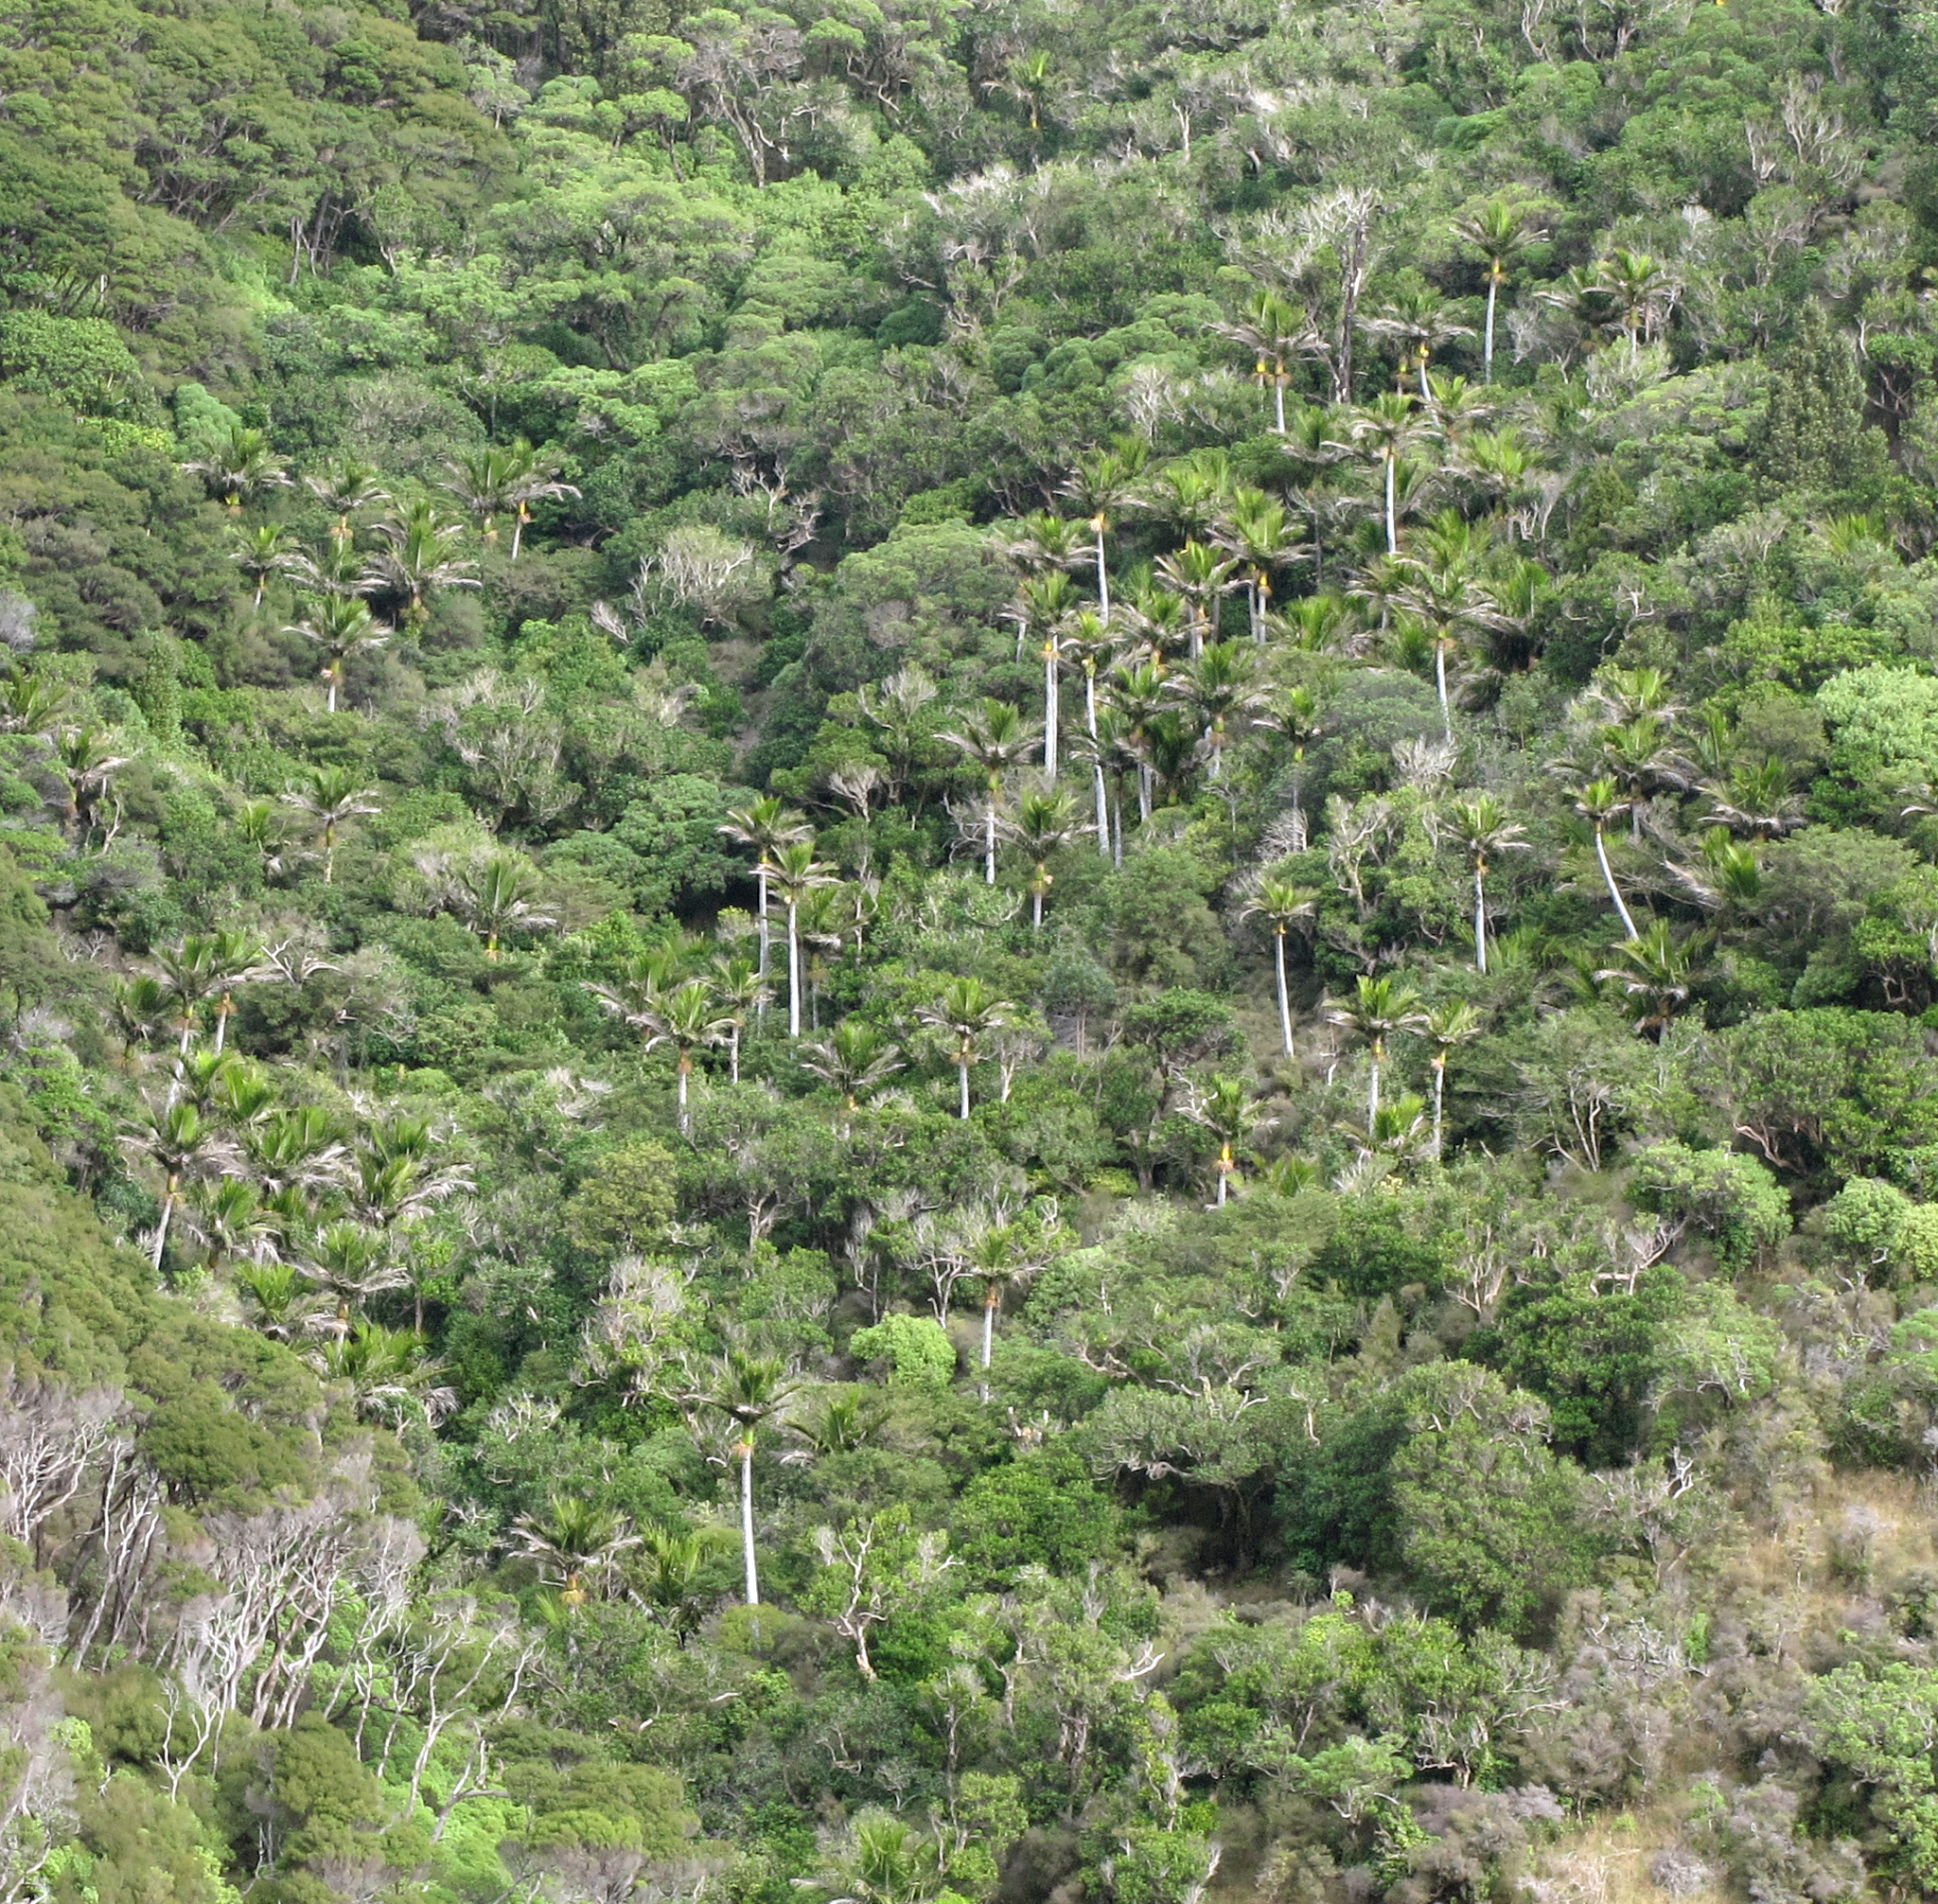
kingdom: Plantae
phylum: Tracheophyta
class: Liliopsida
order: Arecales
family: Arecaceae
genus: Rhopalostylis
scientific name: Rhopalostylis sapida
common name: Feather-duster palm
